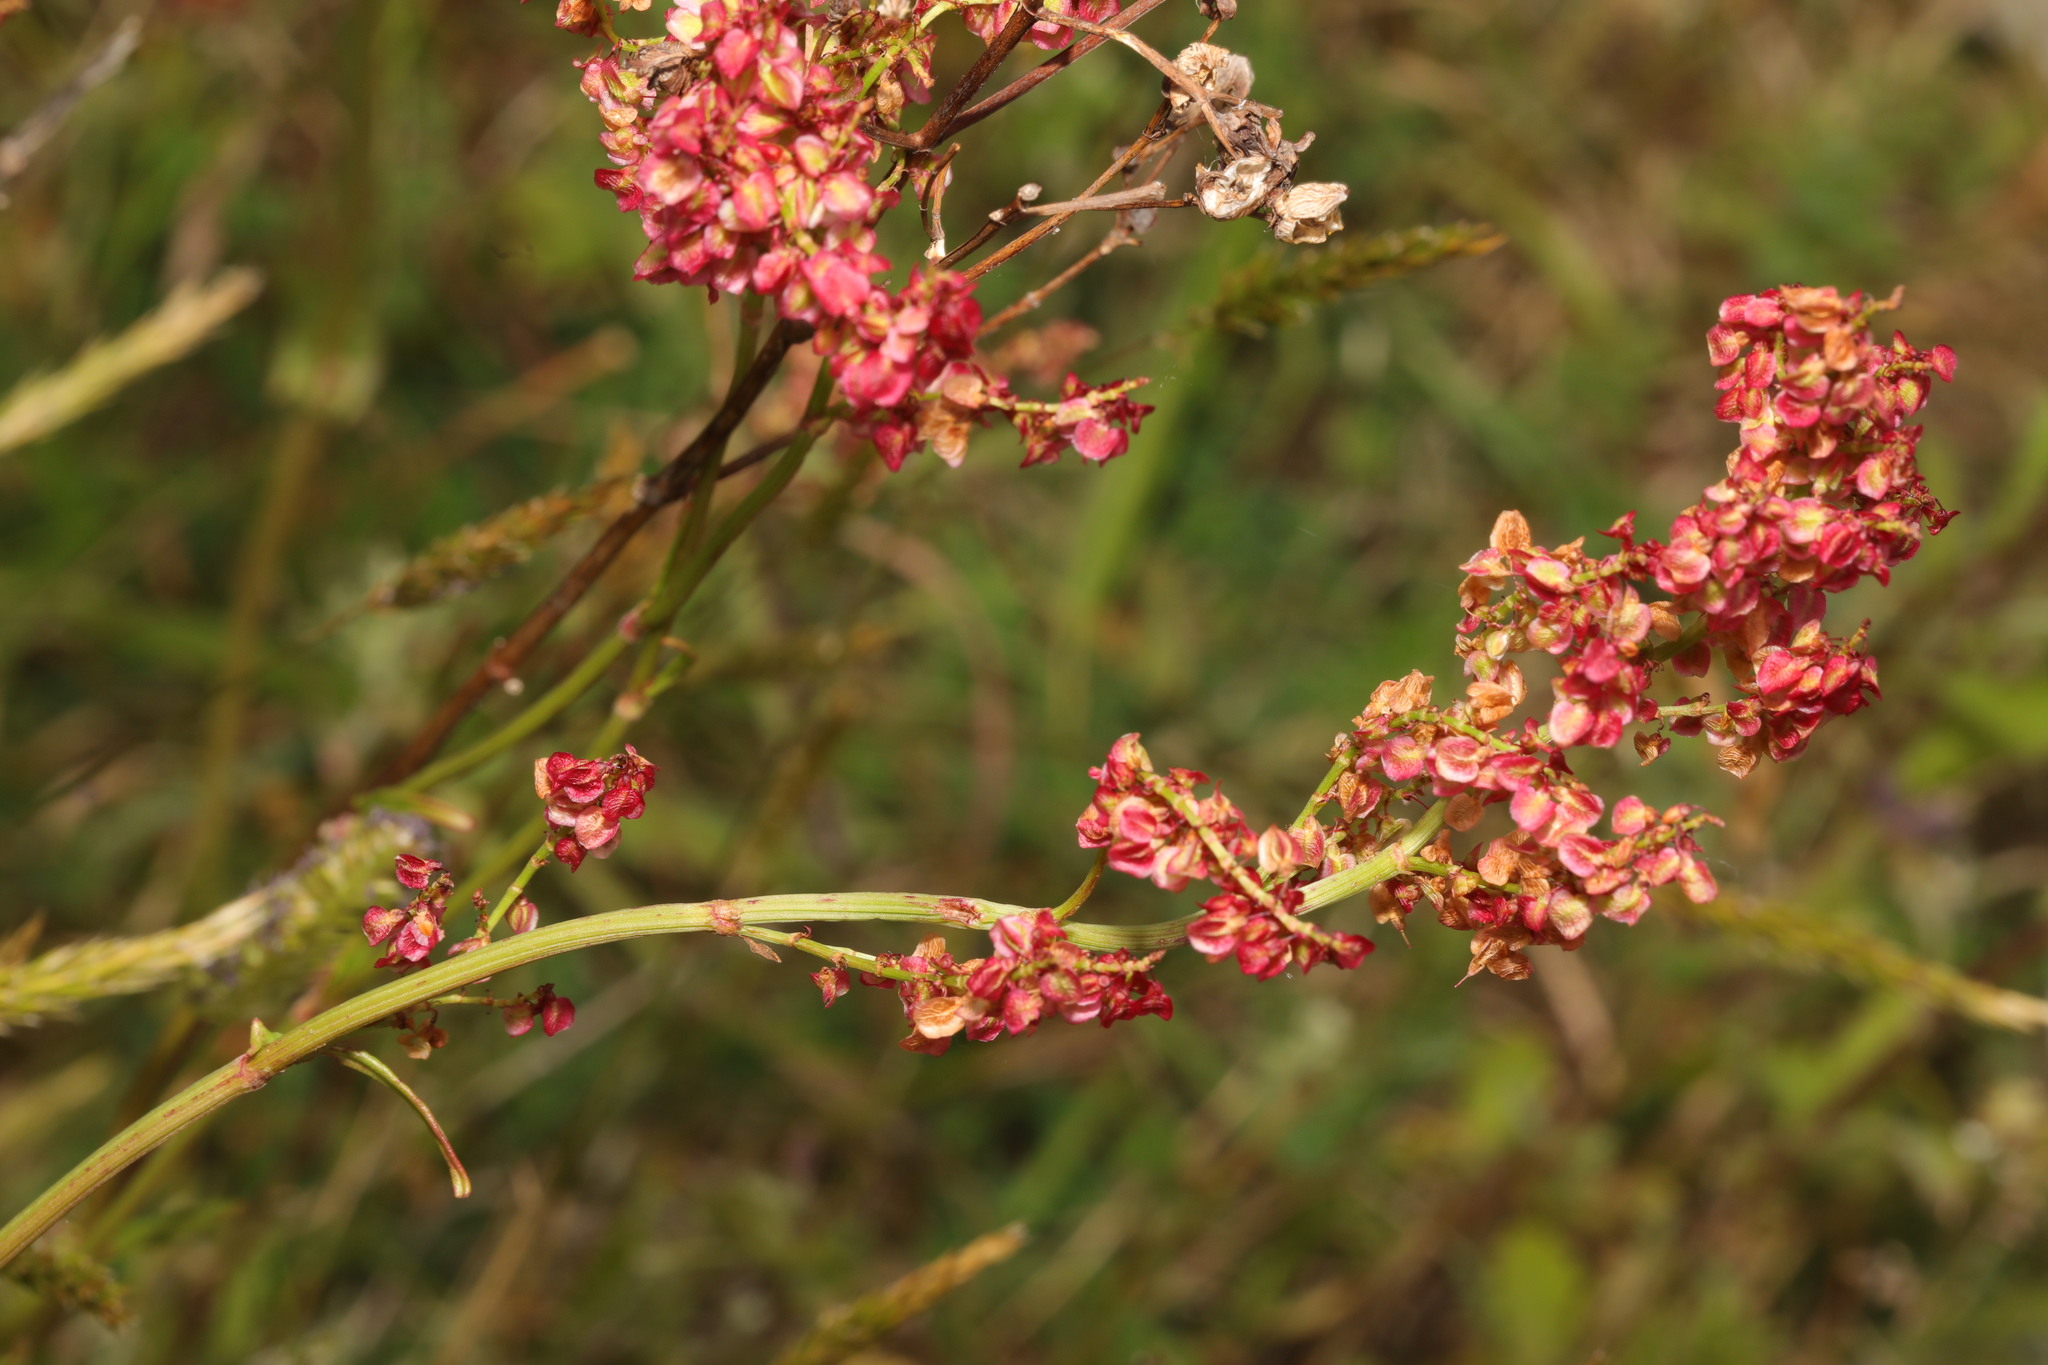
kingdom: Plantae
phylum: Tracheophyta
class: Magnoliopsida
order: Caryophyllales
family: Polygonaceae
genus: Rumex
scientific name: Rumex acetosa
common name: Garden sorrel
